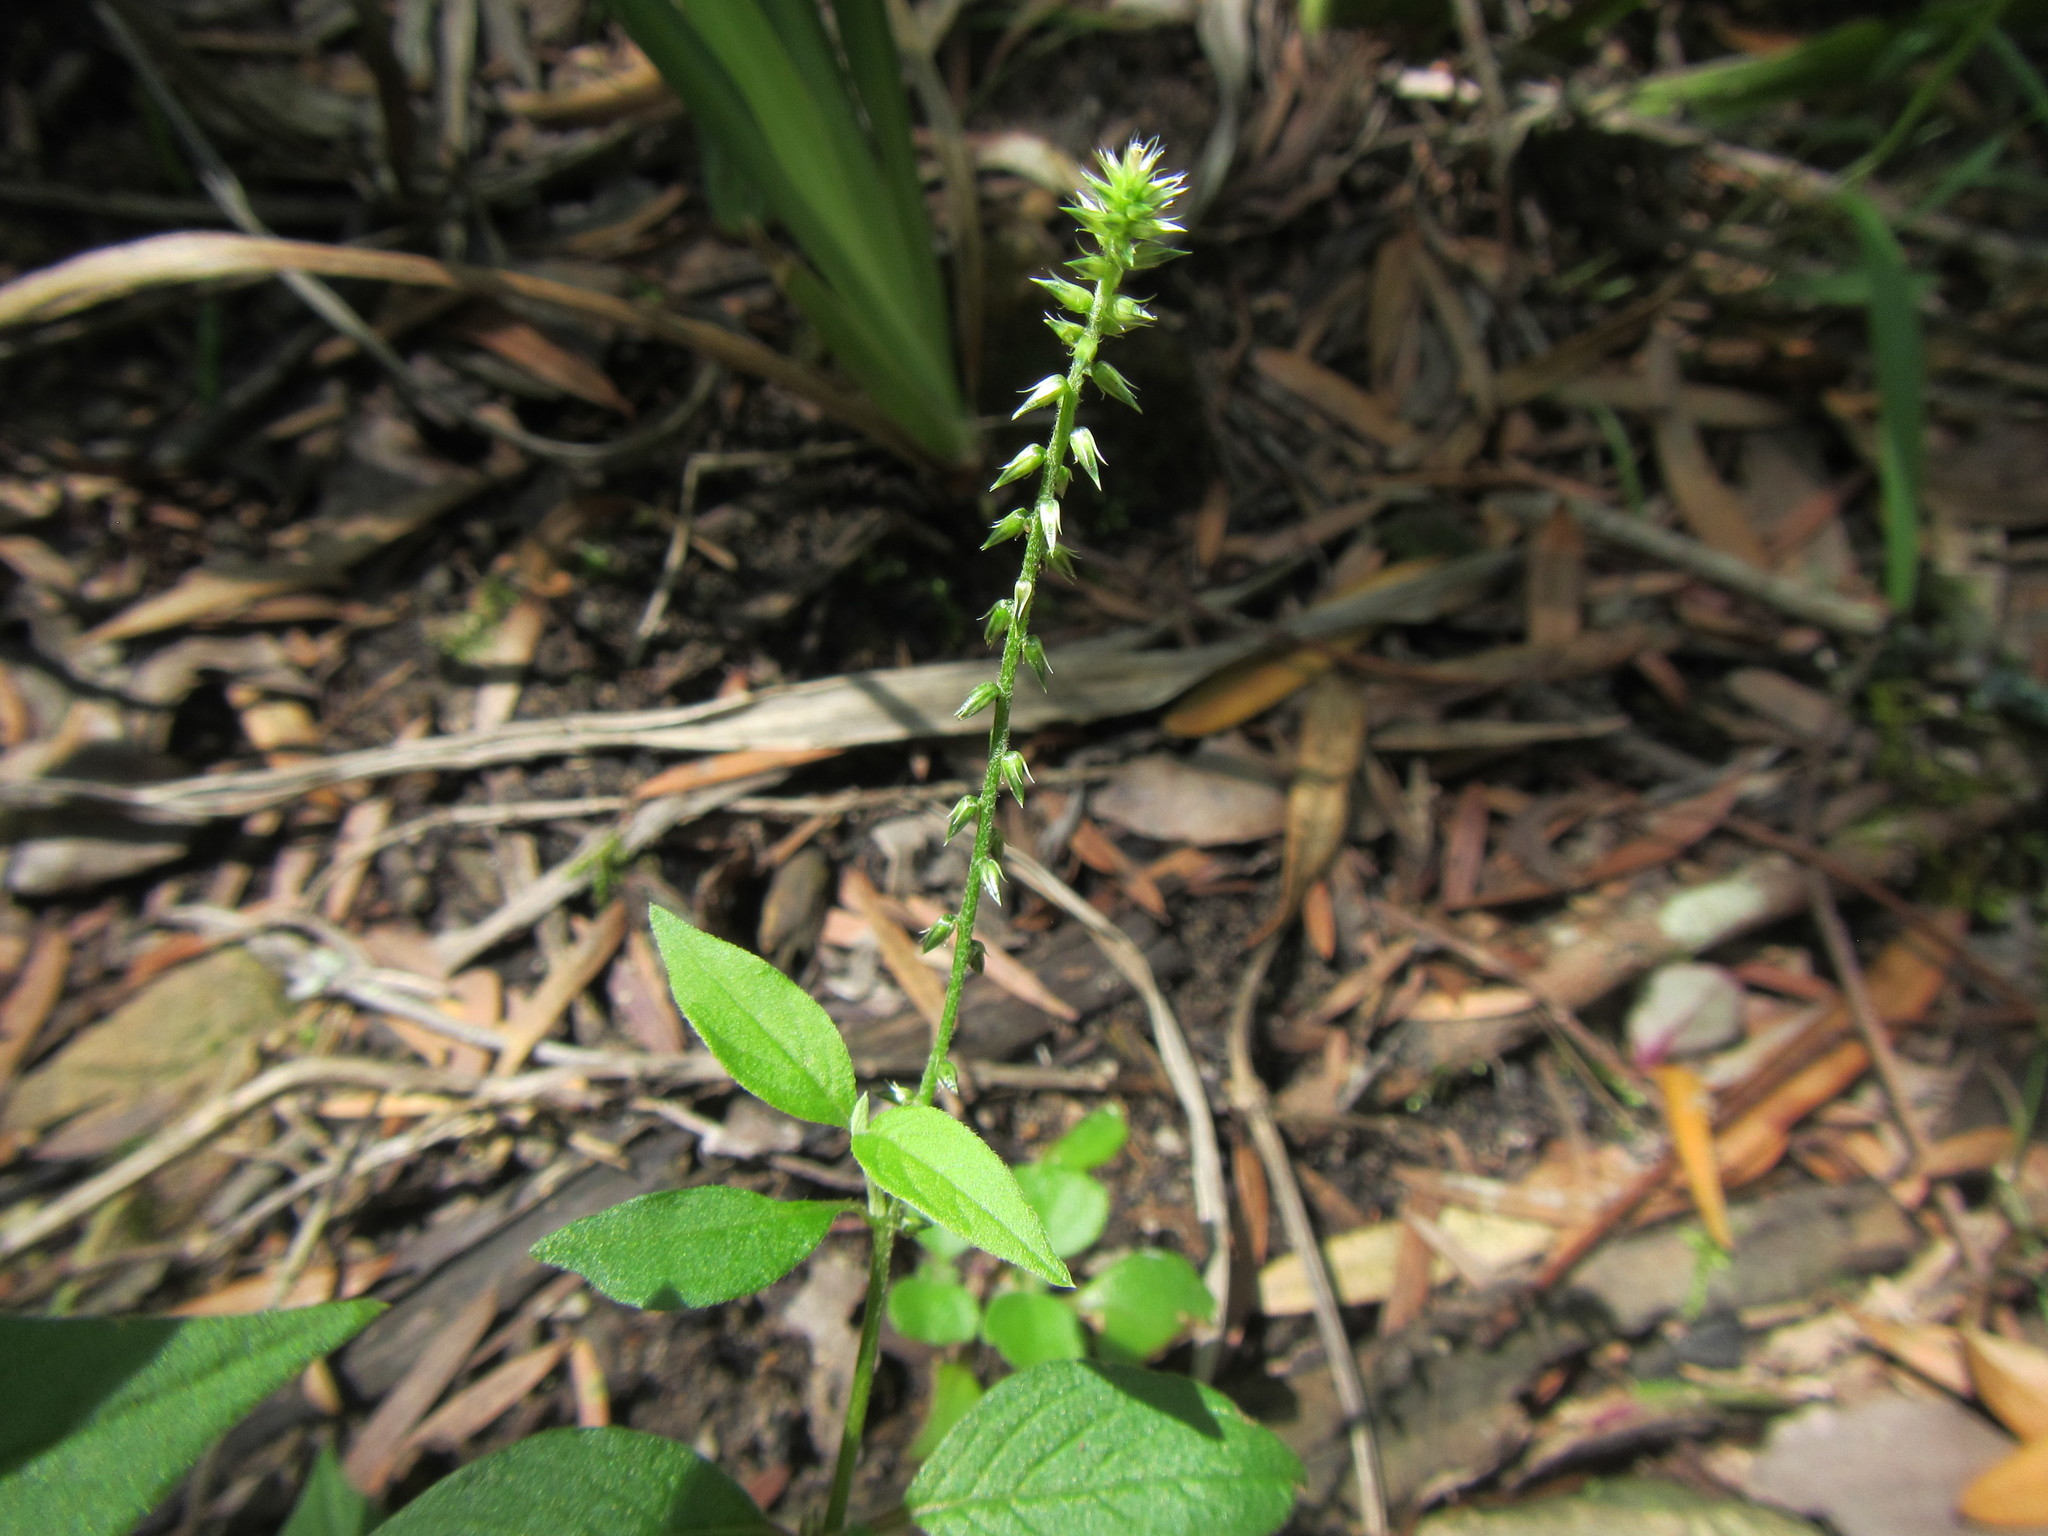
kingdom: Plantae
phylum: Tracheophyta
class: Magnoliopsida
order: Caryophyllales
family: Amaranthaceae
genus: Achyranthes
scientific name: Achyranthes aspera
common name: Devil's horsewhip
